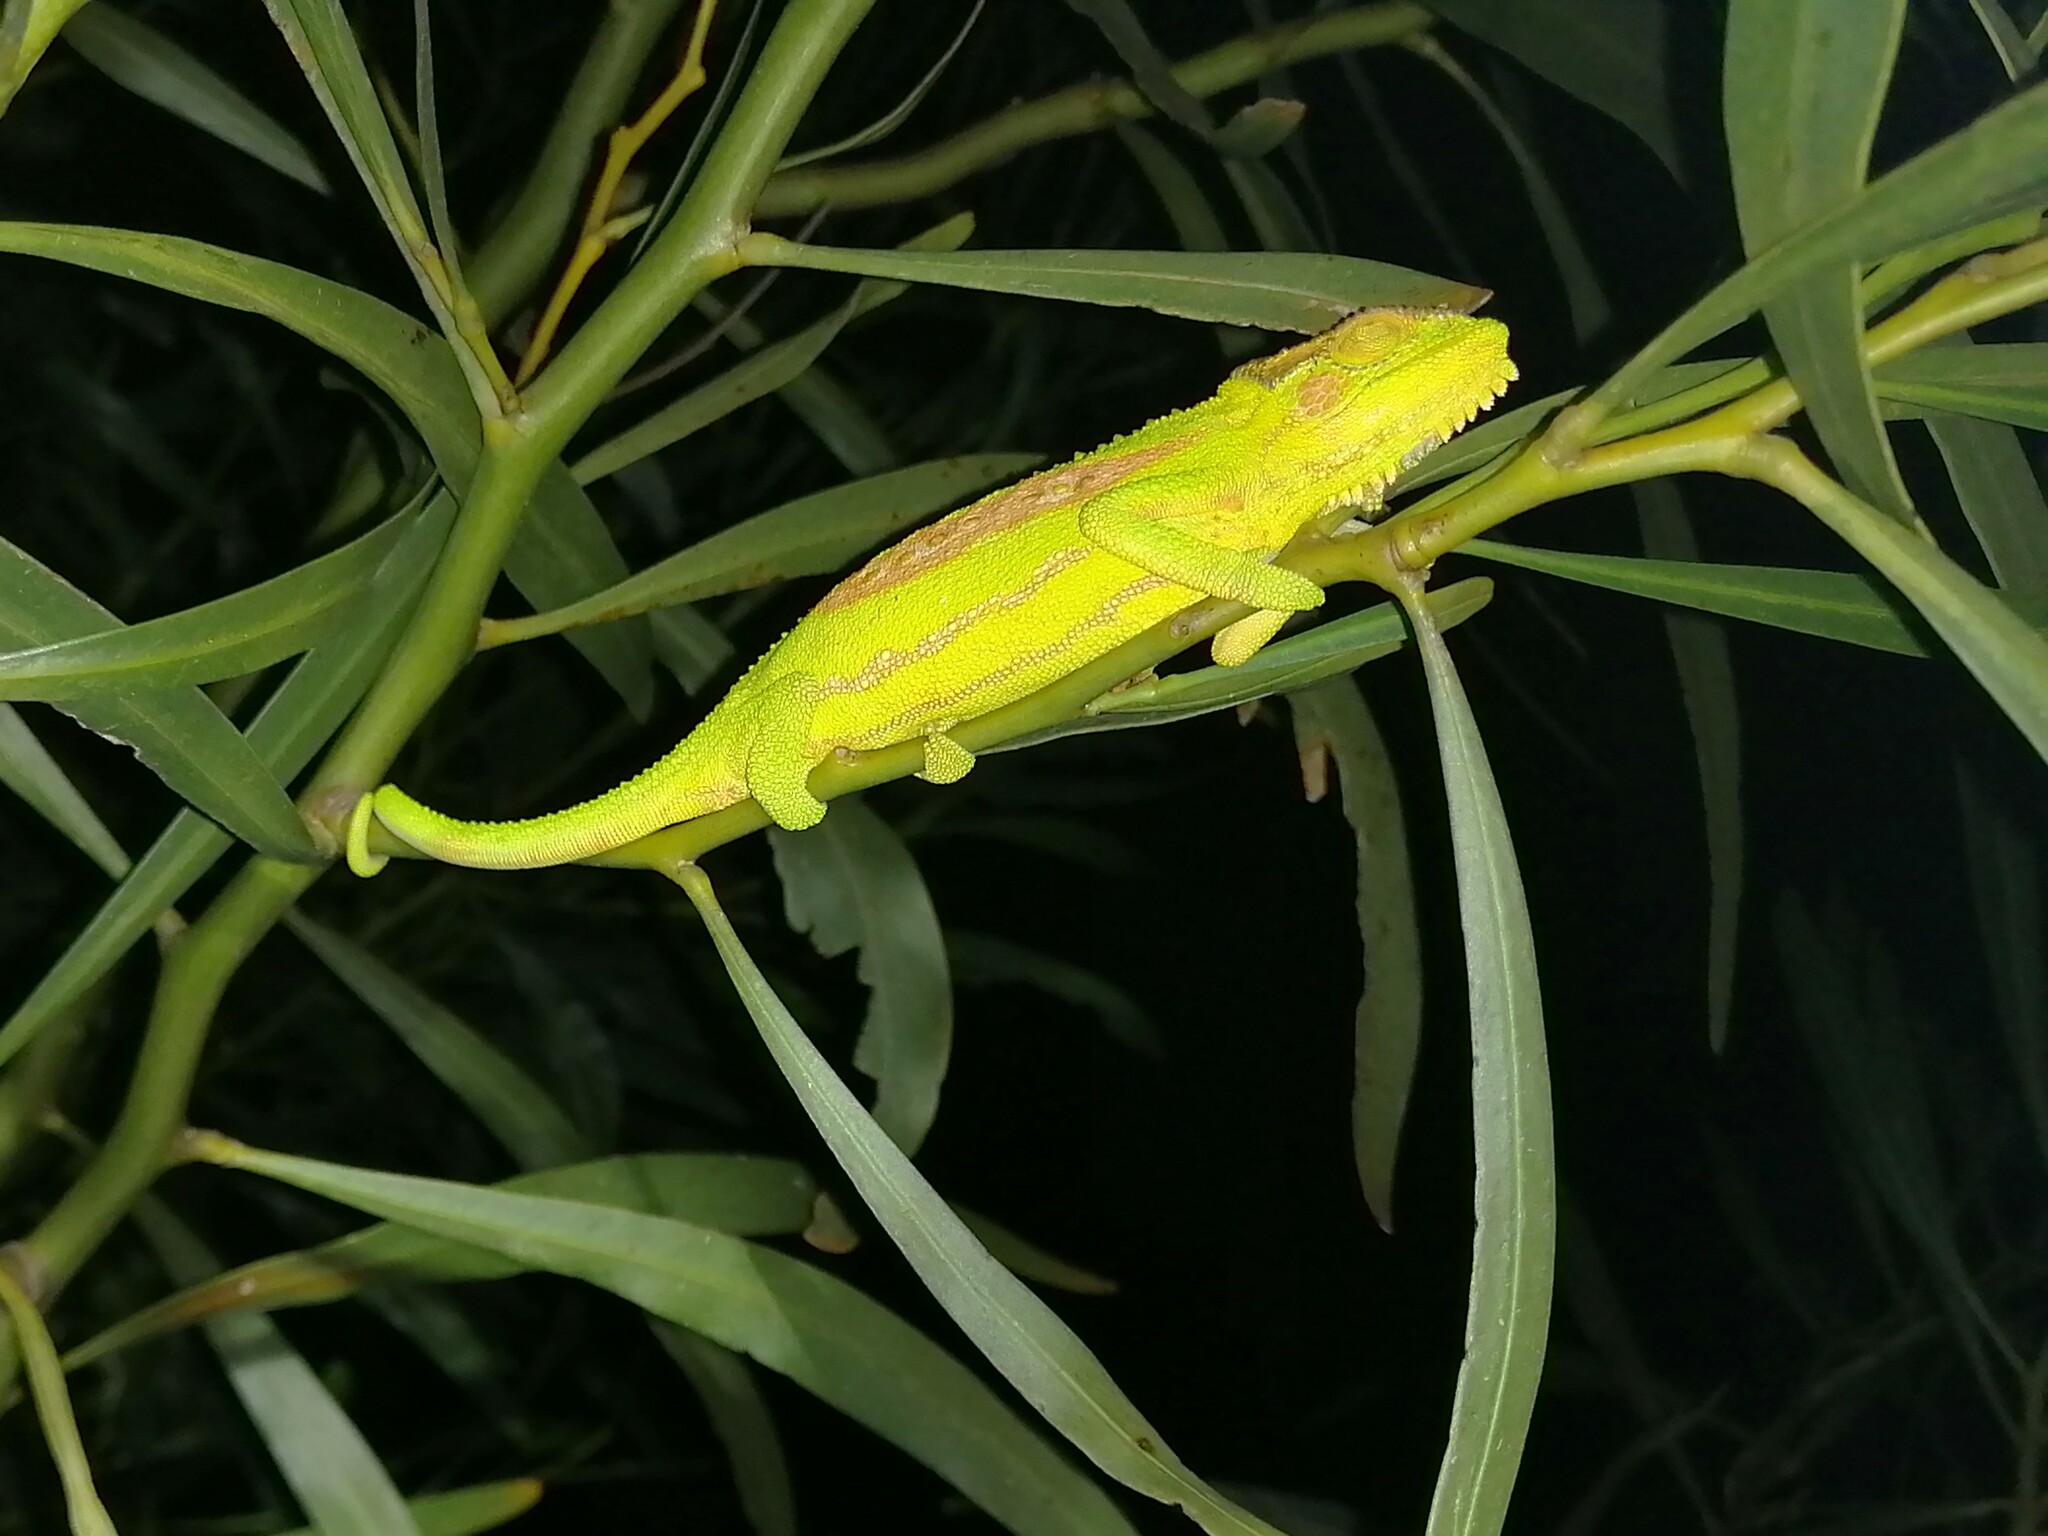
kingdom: Animalia
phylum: Chordata
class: Squamata
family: Chamaeleonidae
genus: Bradypodion
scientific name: Bradypodion pumilum
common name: Cape dwarf chameleon
